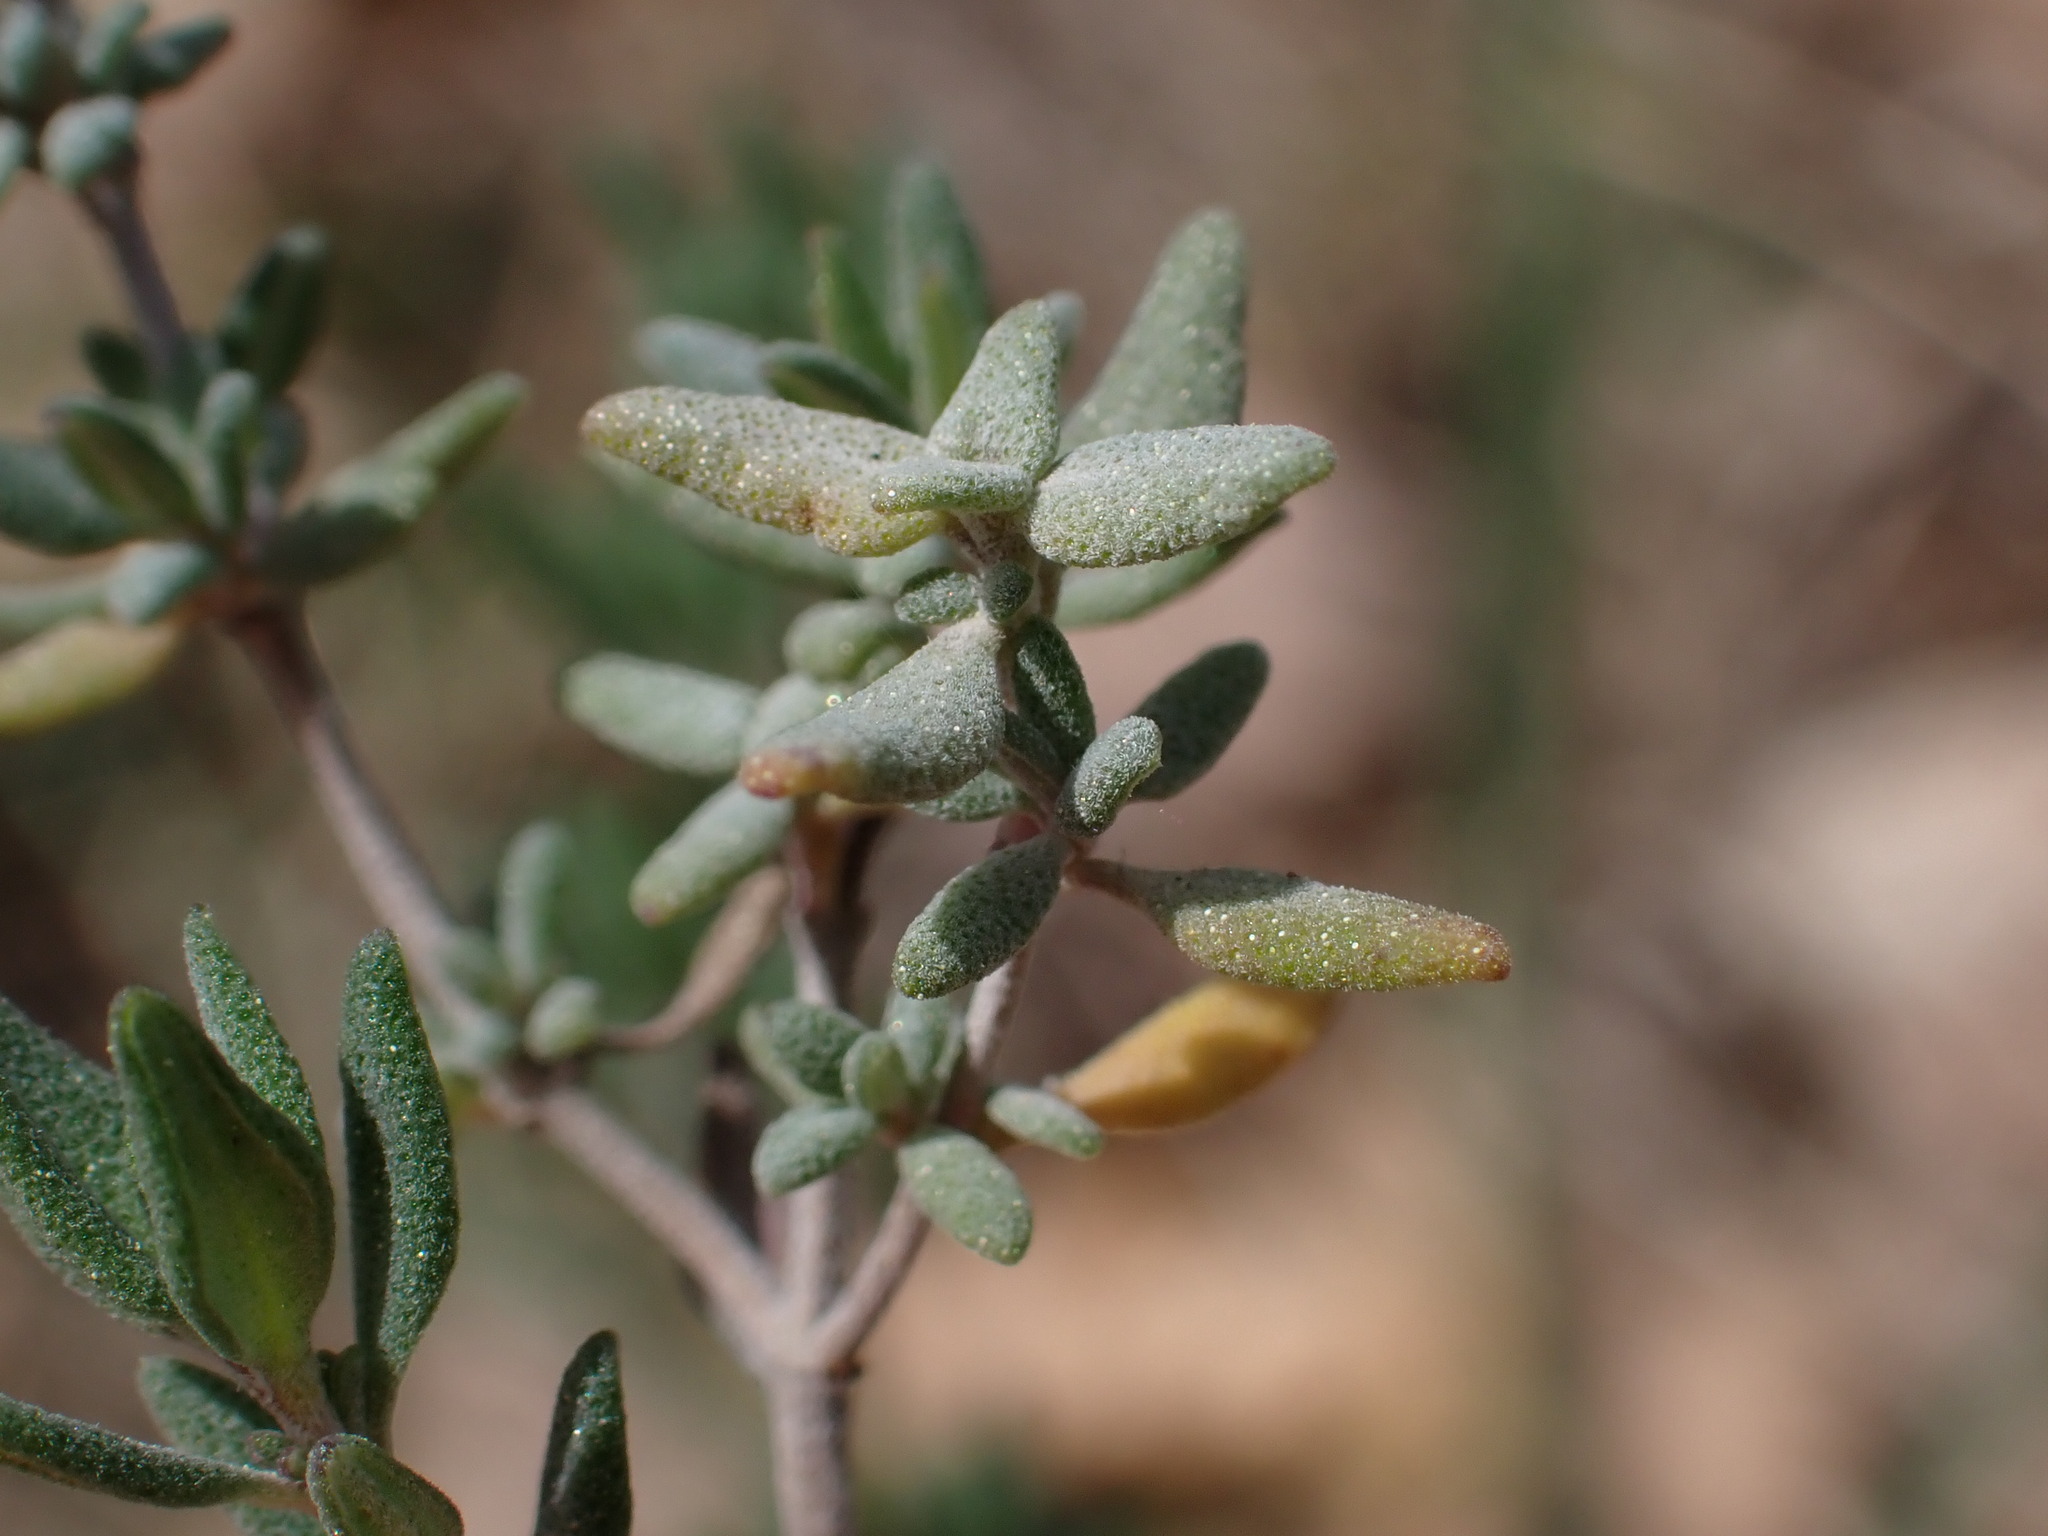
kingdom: Plantae
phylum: Tracheophyta
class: Magnoliopsida
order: Lamiales
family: Lamiaceae
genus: Thymus
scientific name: Thymus vulgaris
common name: Garden thyme
